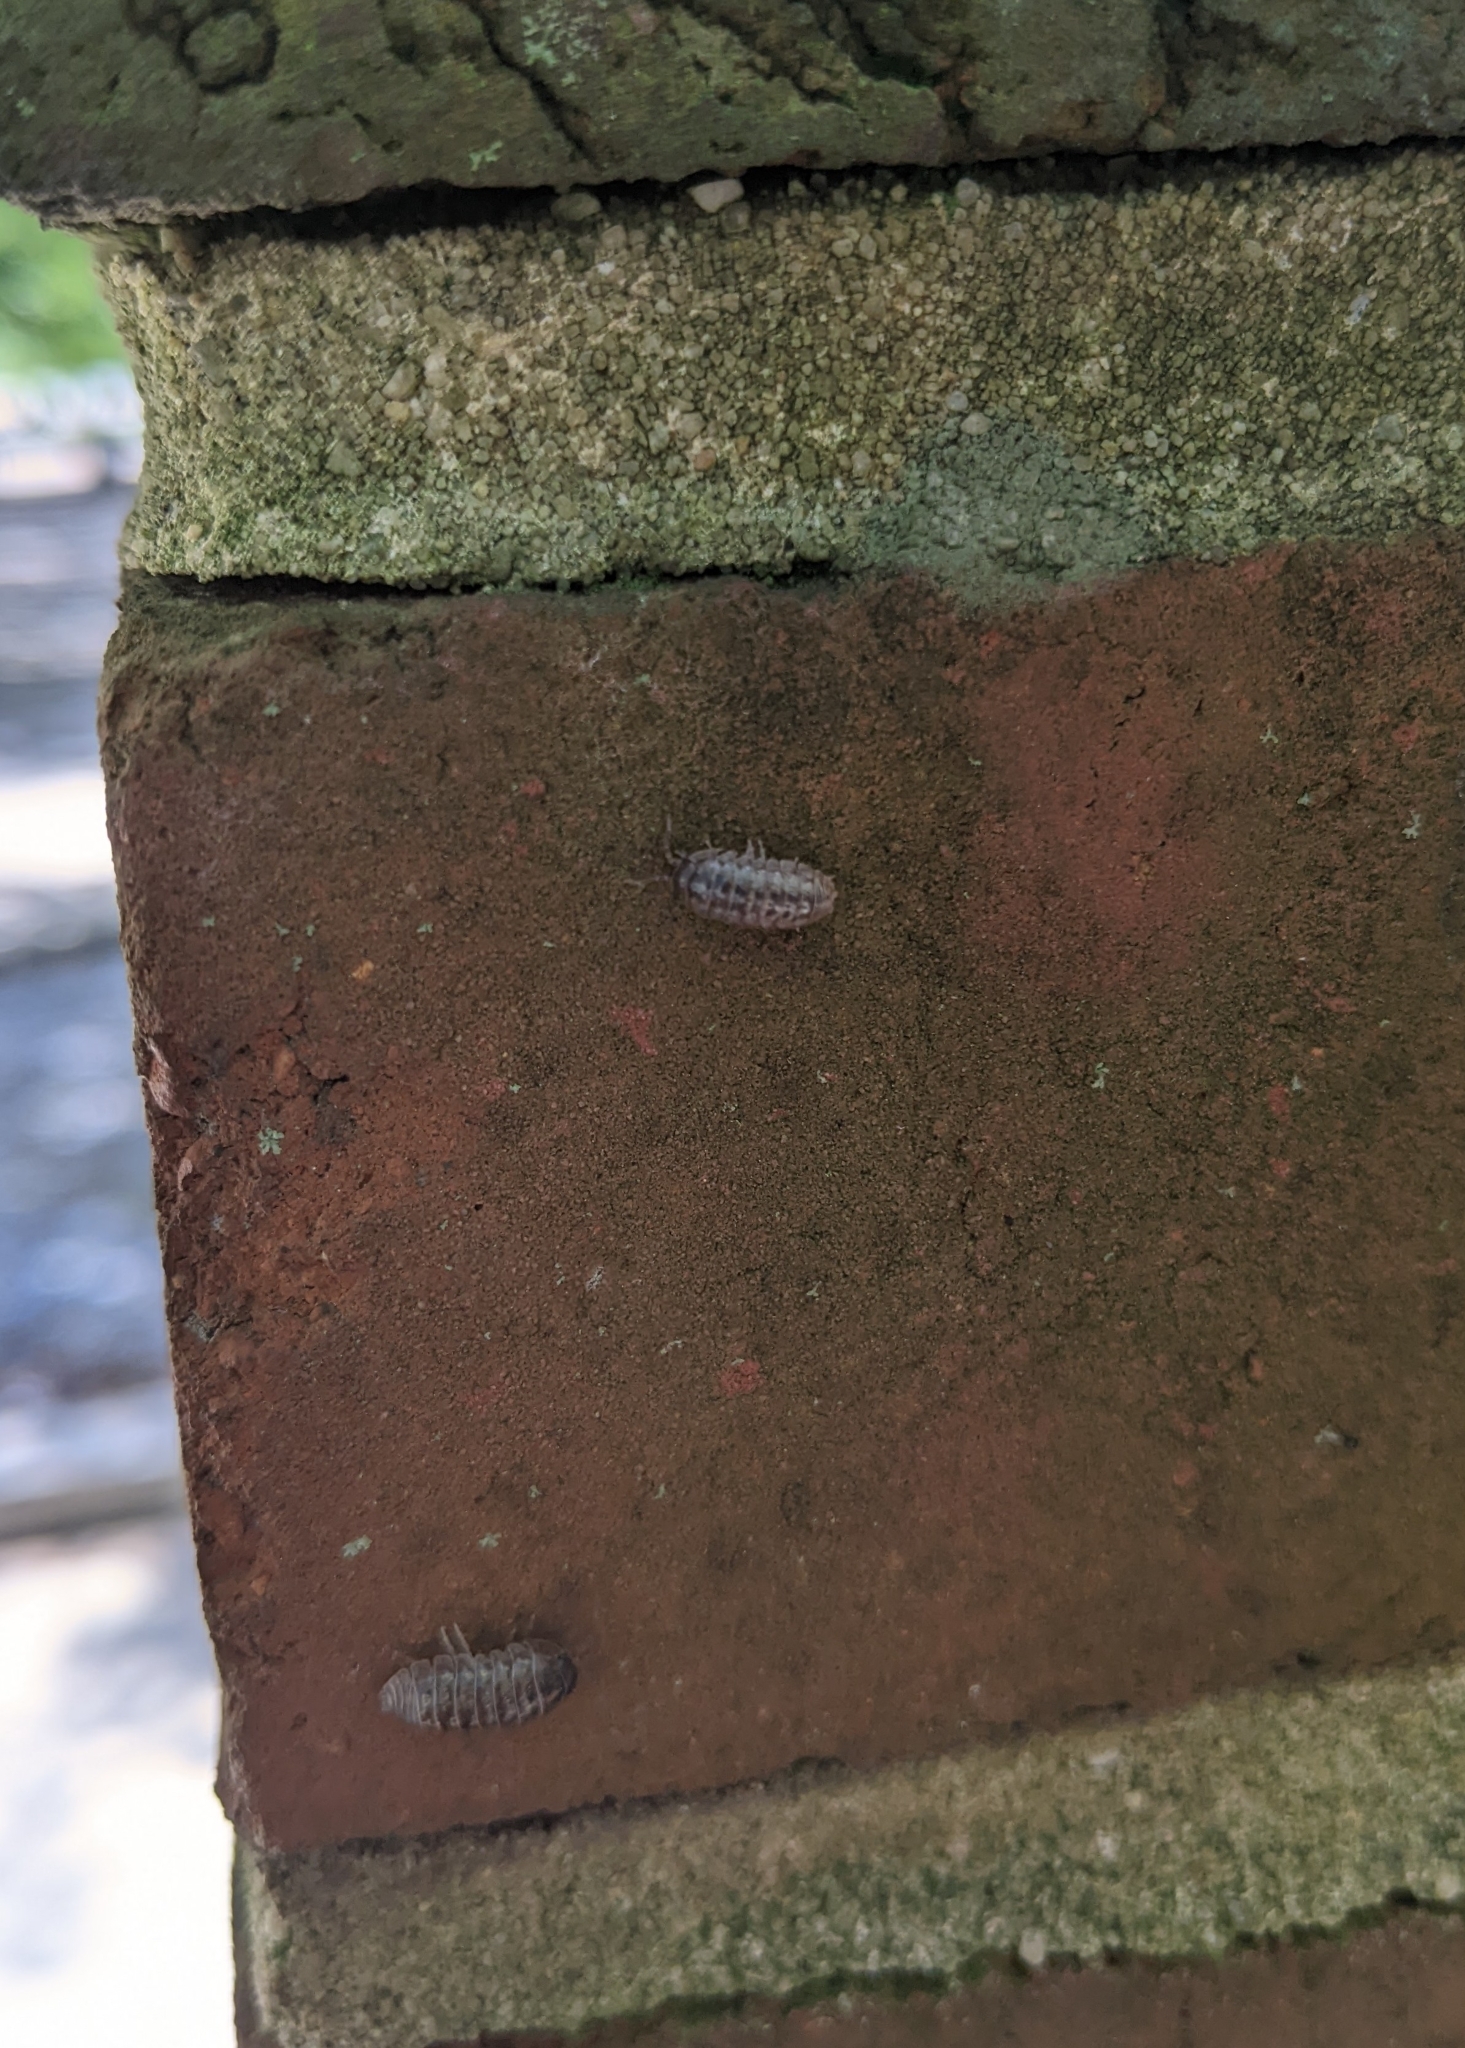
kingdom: Animalia
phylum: Arthropoda
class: Malacostraca
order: Isopoda
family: Armadillidiidae
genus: Armadillidium
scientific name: Armadillidium vulgare
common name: Common pill woodlouse
